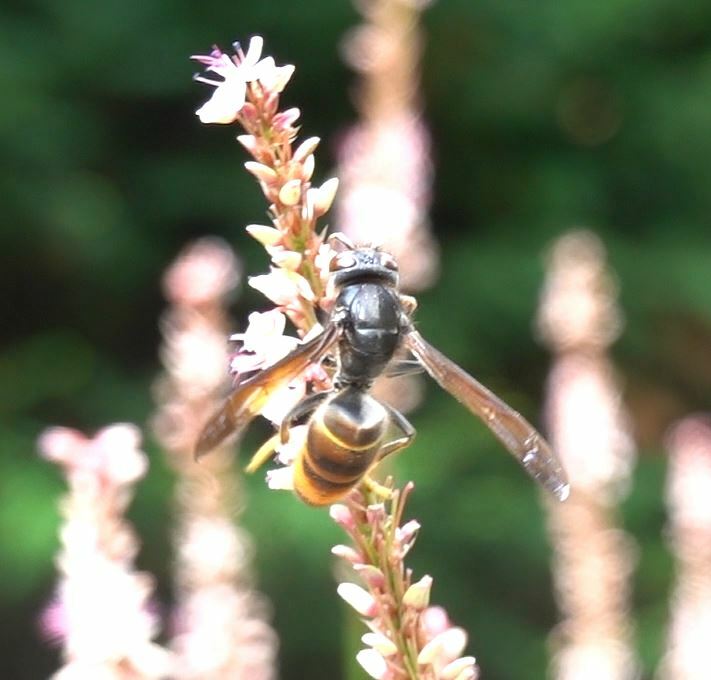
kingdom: Animalia
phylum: Arthropoda
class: Insecta
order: Hymenoptera
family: Vespidae
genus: Vespa
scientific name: Vespa velutina
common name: Asian hornet
